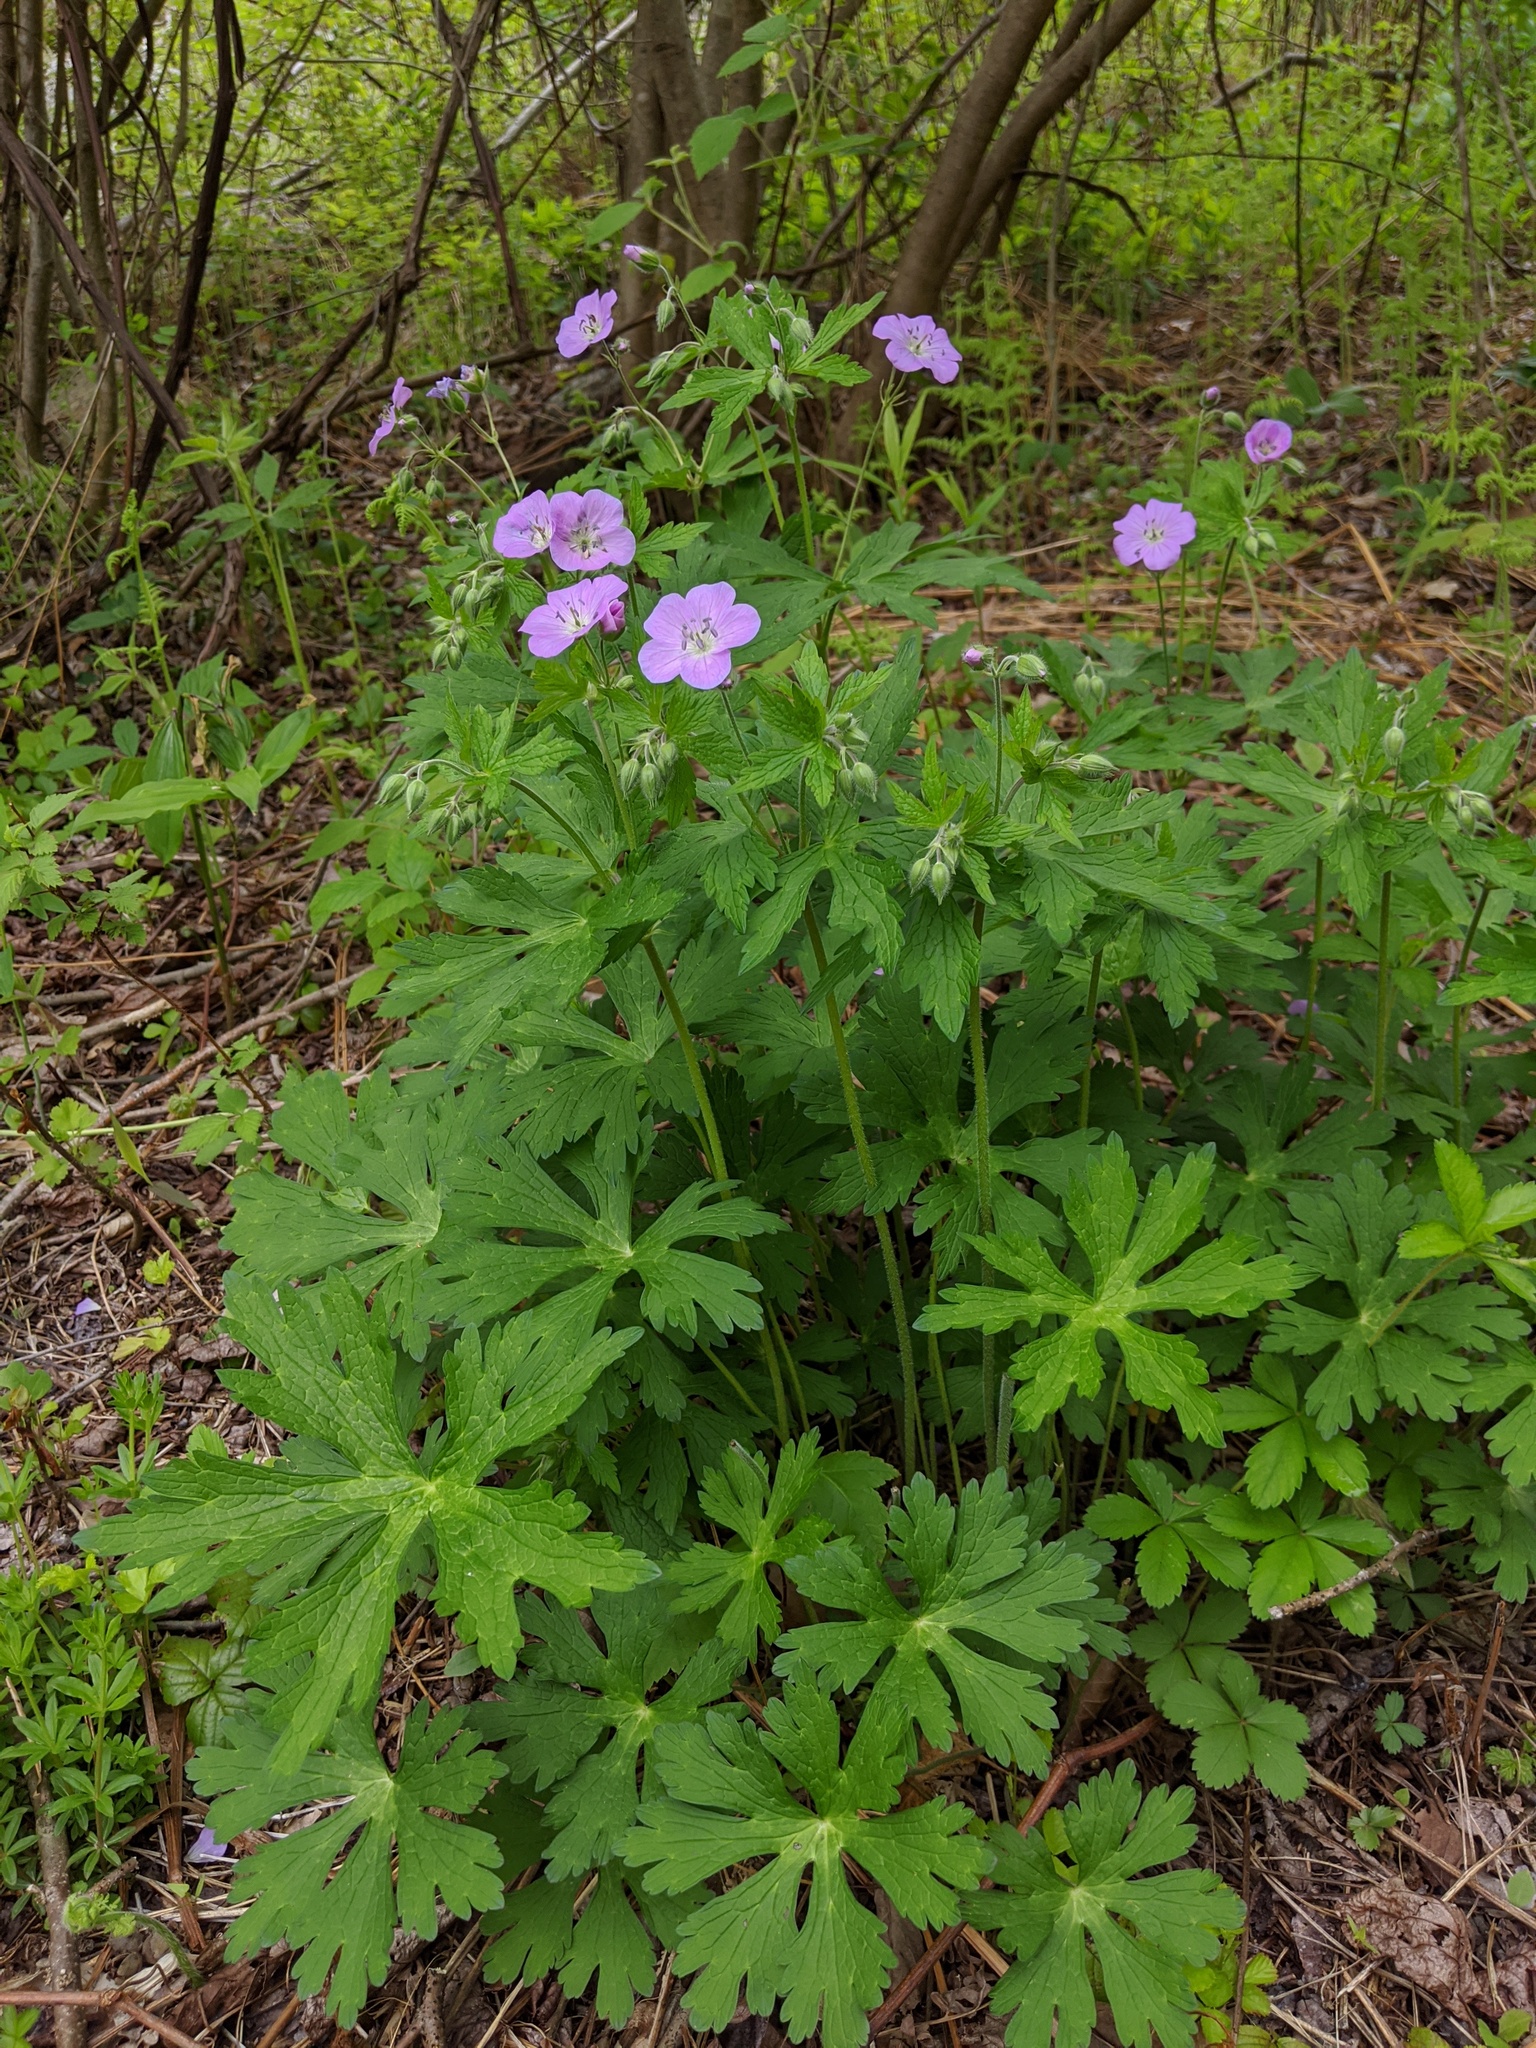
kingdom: Plantae
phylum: Tracheophyta
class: Magnoliopsida
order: Geraniales
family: Geraniaceae
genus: Geranium
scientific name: Geranium maculatum
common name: Spotted geranium
